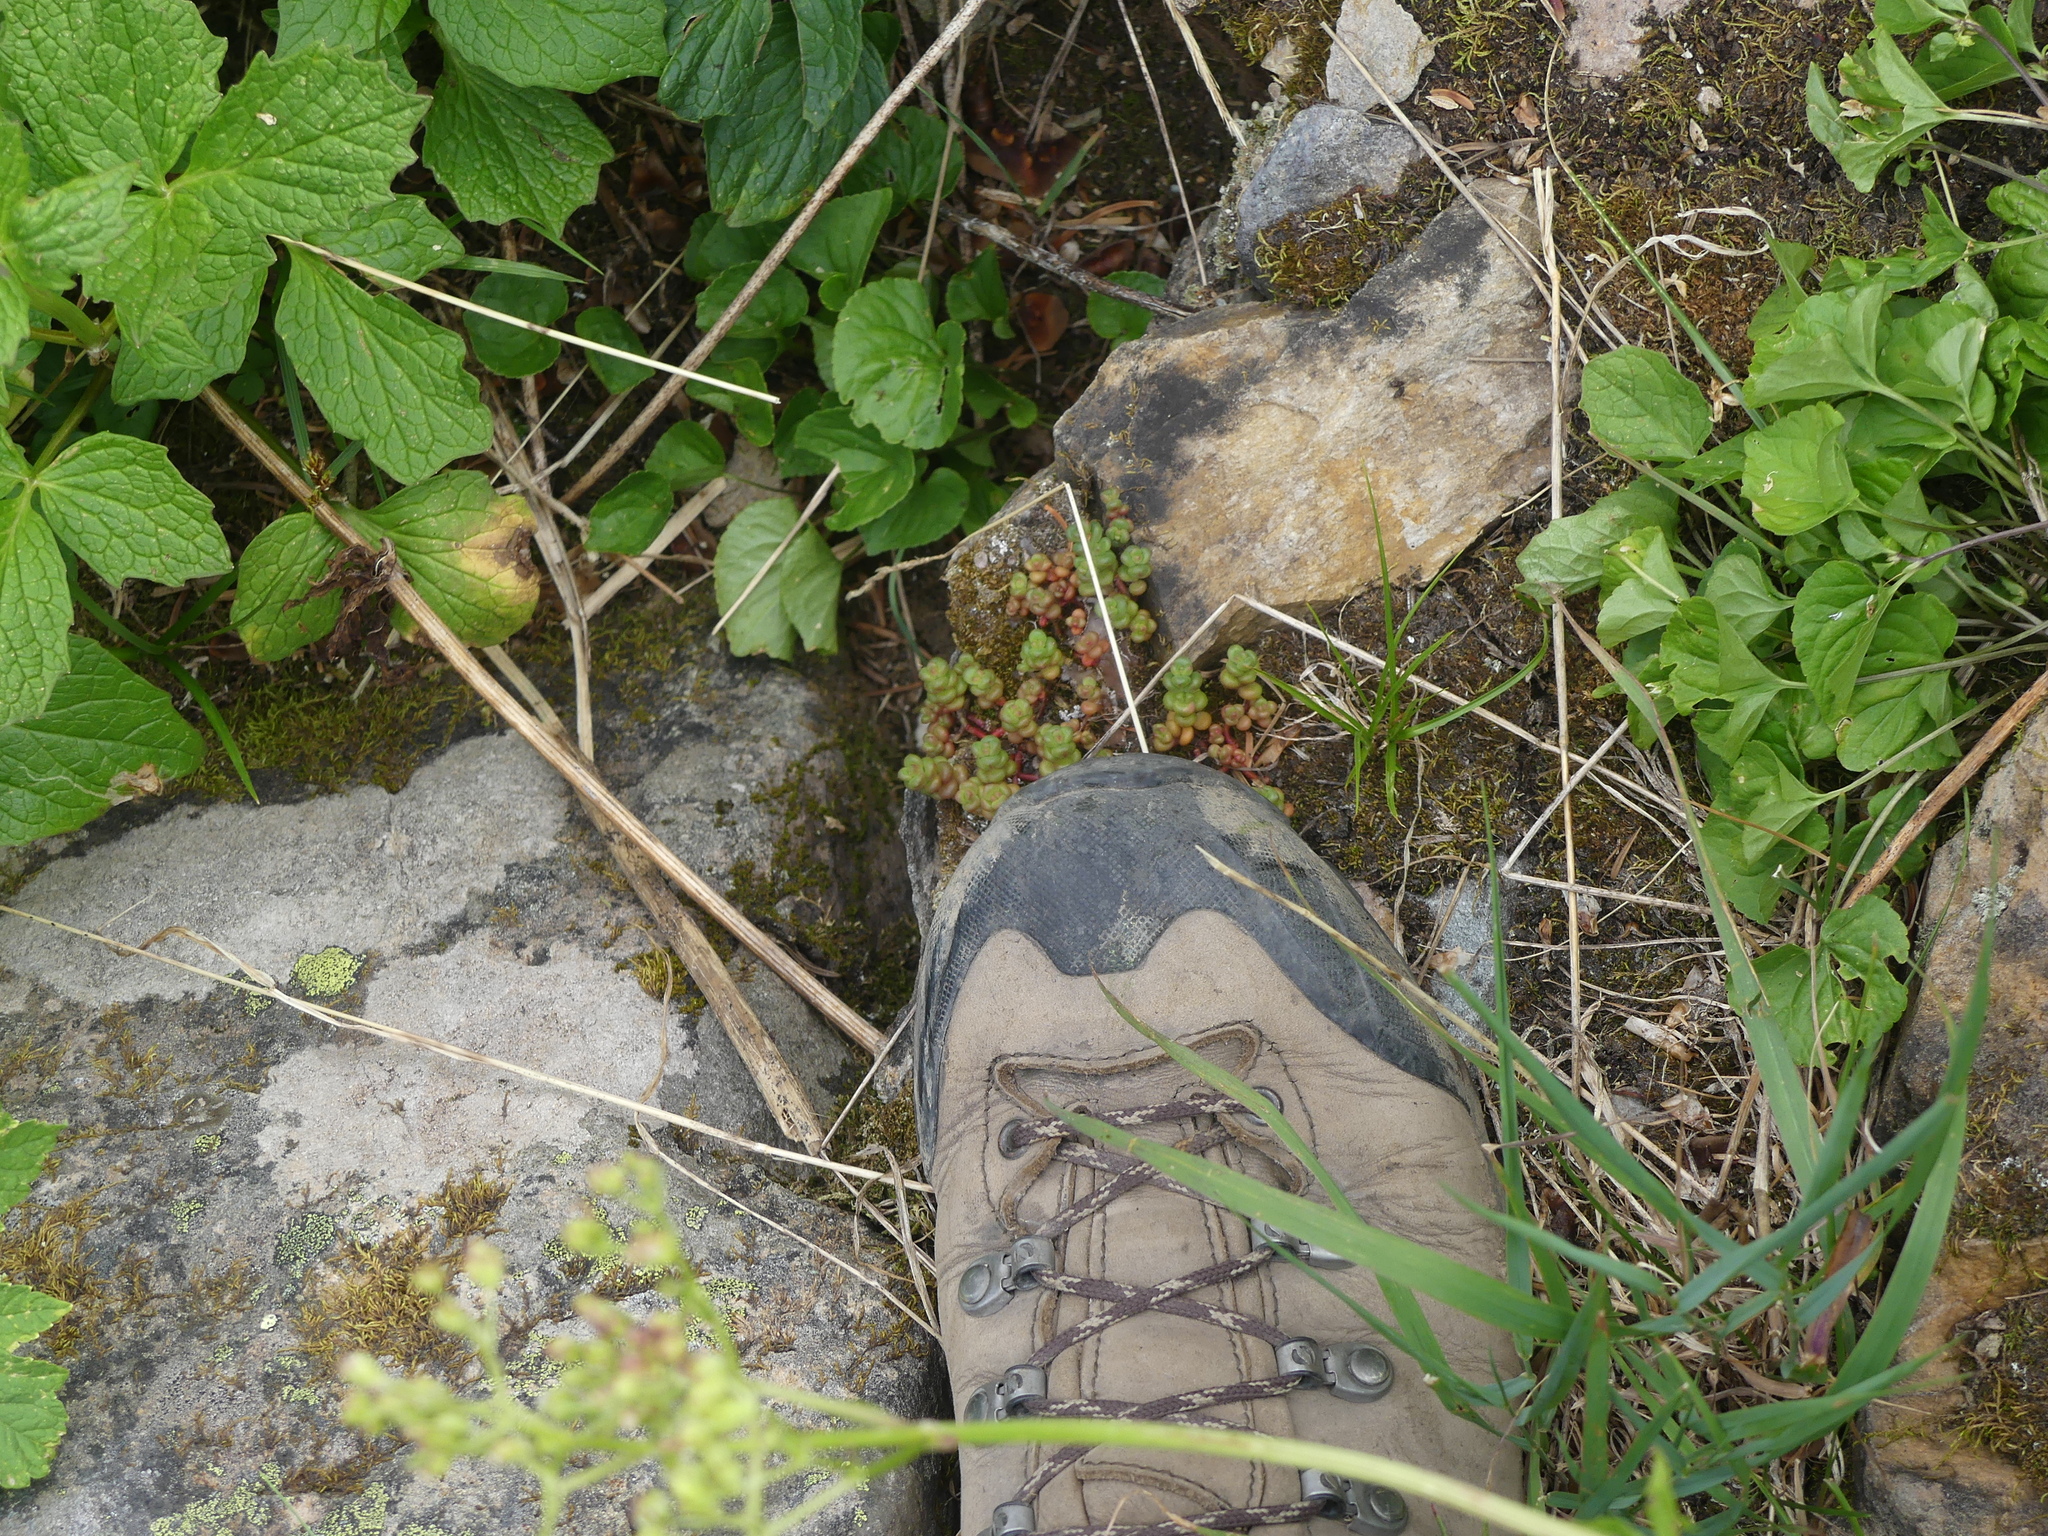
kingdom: Plantae
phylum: Tracheophyta
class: Magnoliopsida
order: Saxifragales
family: Crassulaceae
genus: Sedum
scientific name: Sedum divergens
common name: Cascade stonecrop
